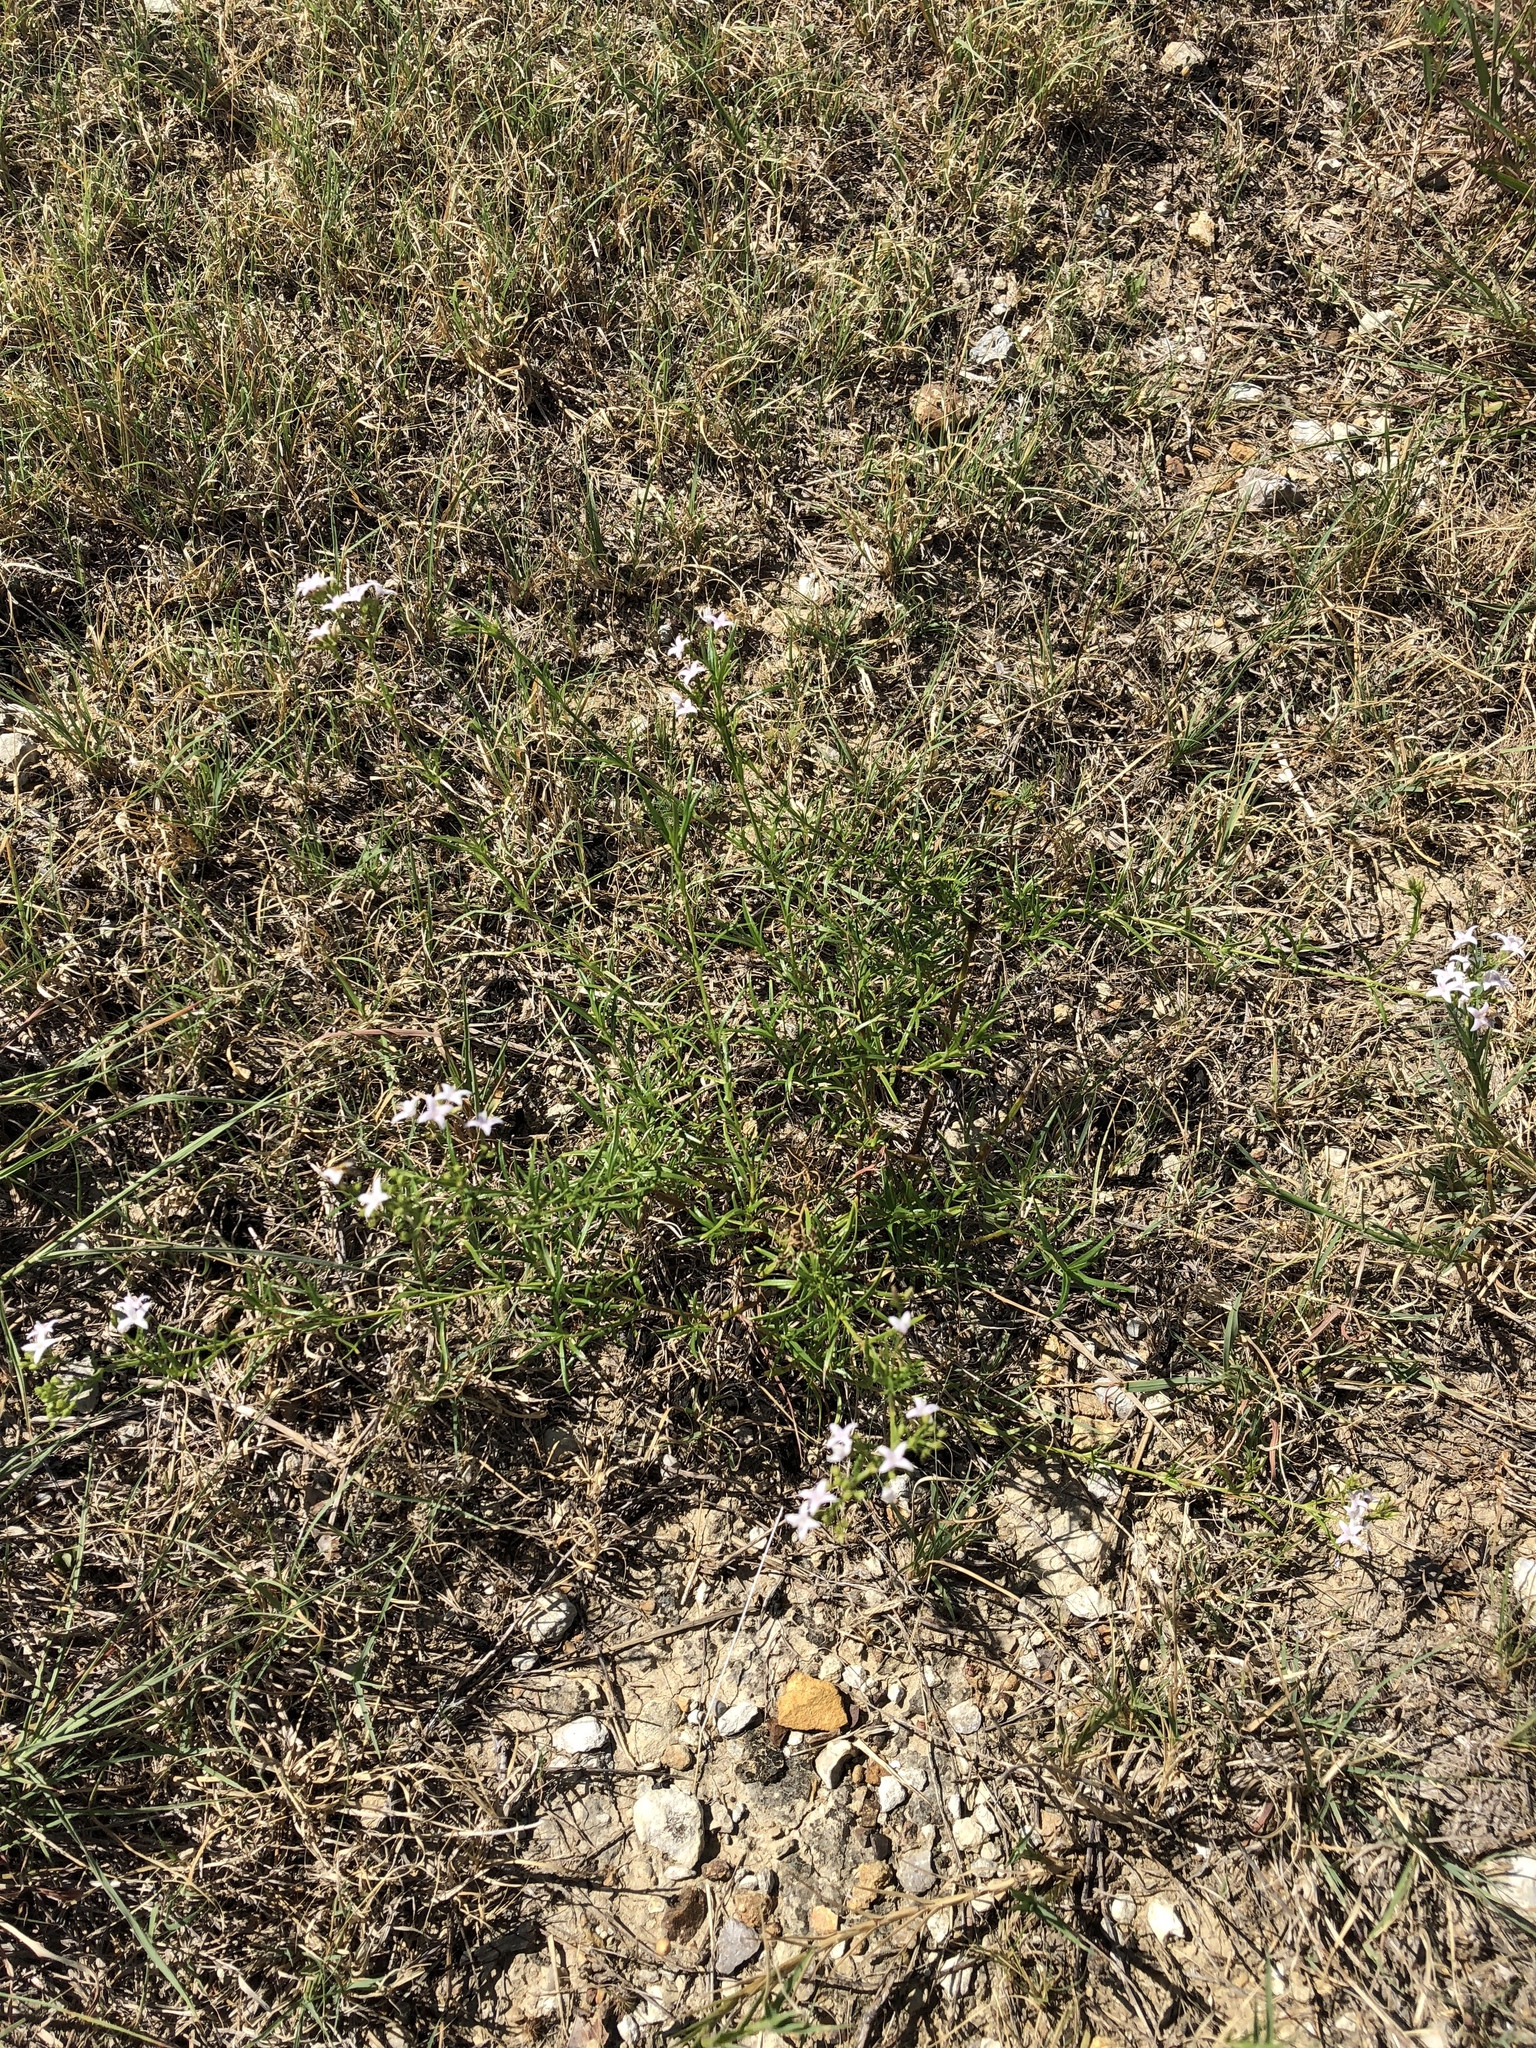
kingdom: Plantae
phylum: Tracheophyta
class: Magnoliopsida
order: Gentianales
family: Rubiaceae
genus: Stenaria
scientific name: Stenaria nigricans
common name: Diamondflowers
